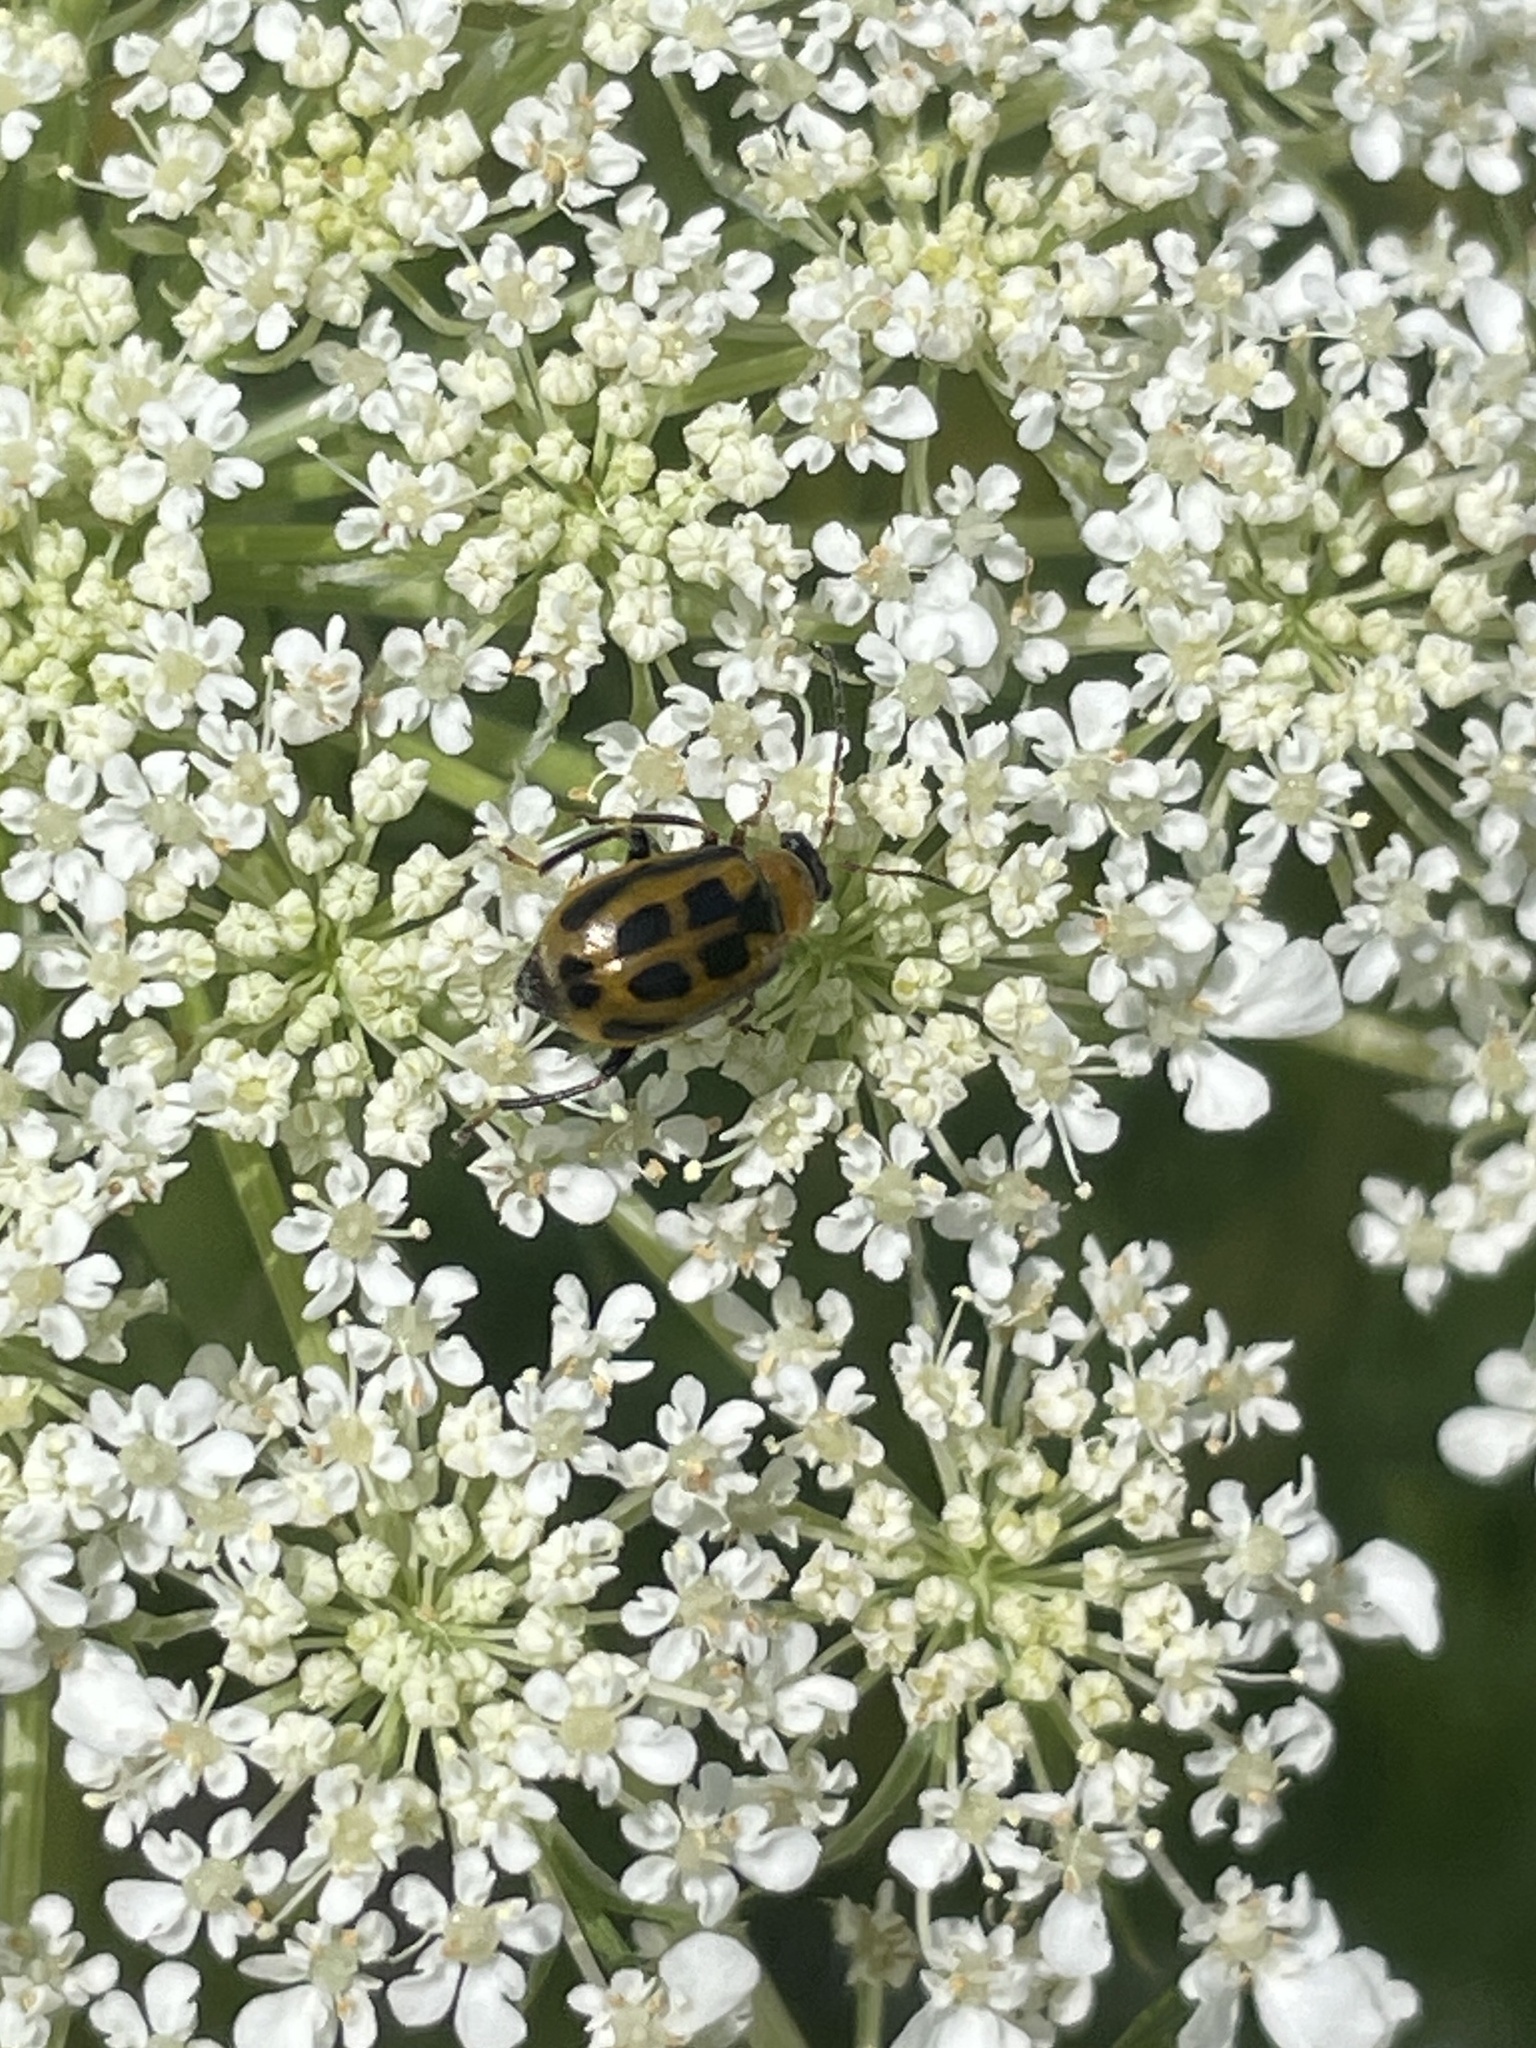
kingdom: Animalia
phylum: Arthropoda
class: Insecta
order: Coleoptera
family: Chrysomelidae
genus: Cerotoma
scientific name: Cerotoma trifurcata
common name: Bean leaf beetle
